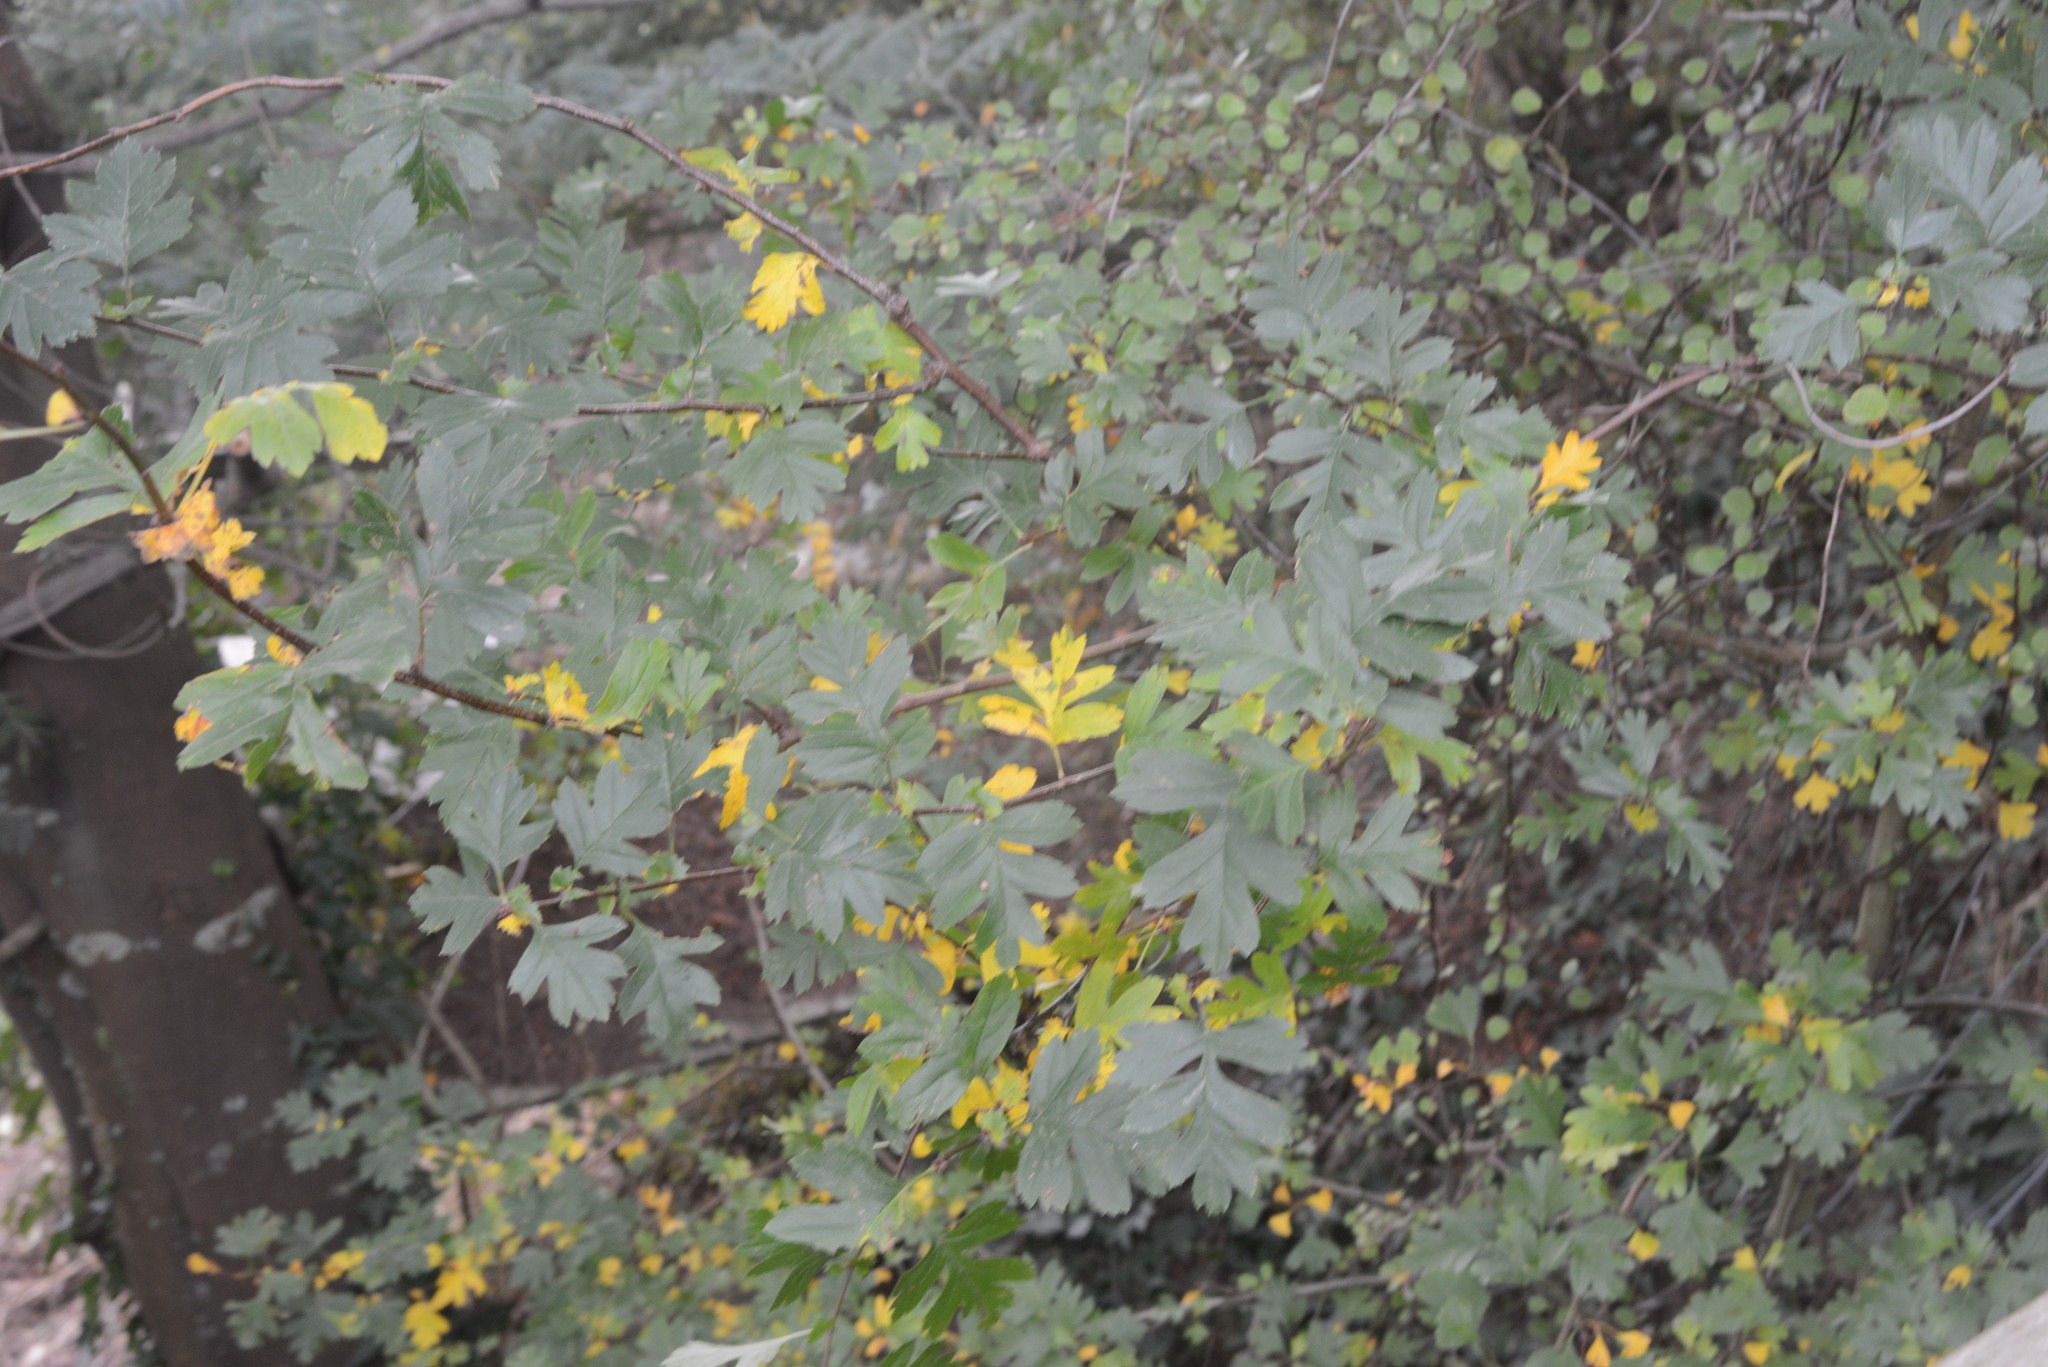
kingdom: Plantae
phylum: Tracheophyta
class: Magnoliopsida
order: Rosales
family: Rosaceae
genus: Crataegus
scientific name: Crataegus monogyna
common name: Hawthorn
